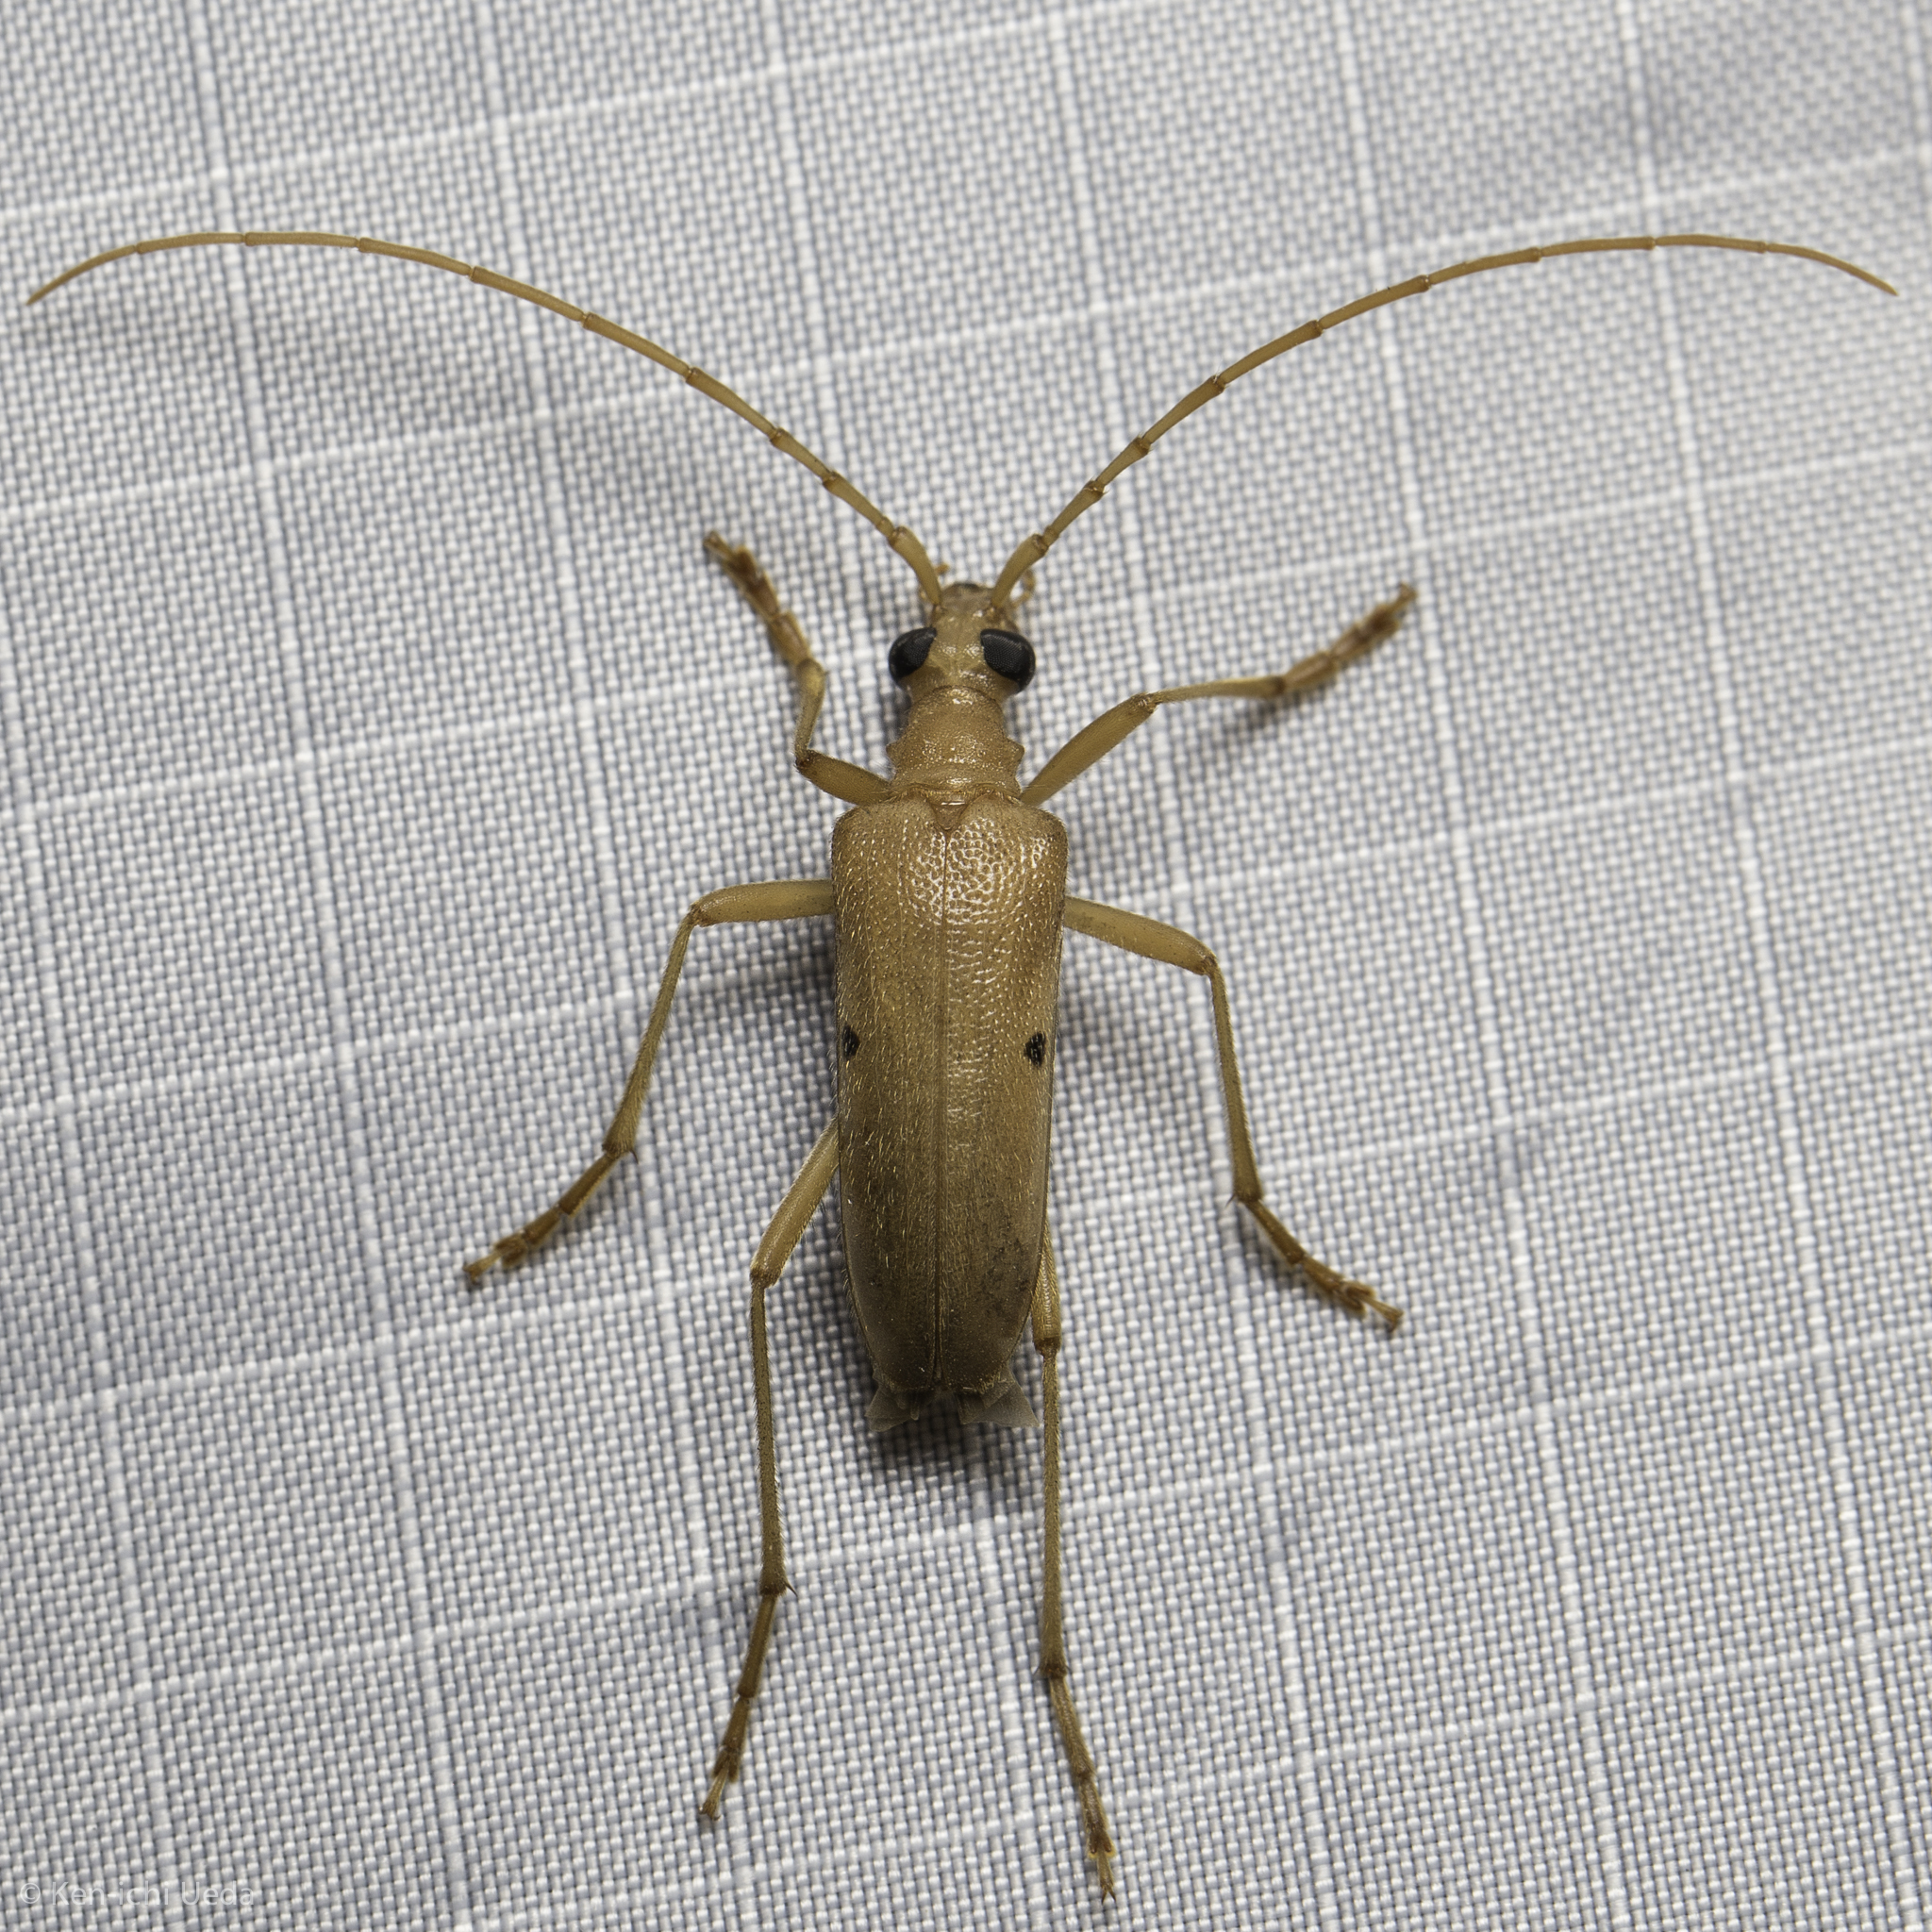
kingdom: Animalia
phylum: Arthropoda
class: Insecta
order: Coleoptera
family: Cerambycidae
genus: Centrodera
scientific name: Centrodera spurca
